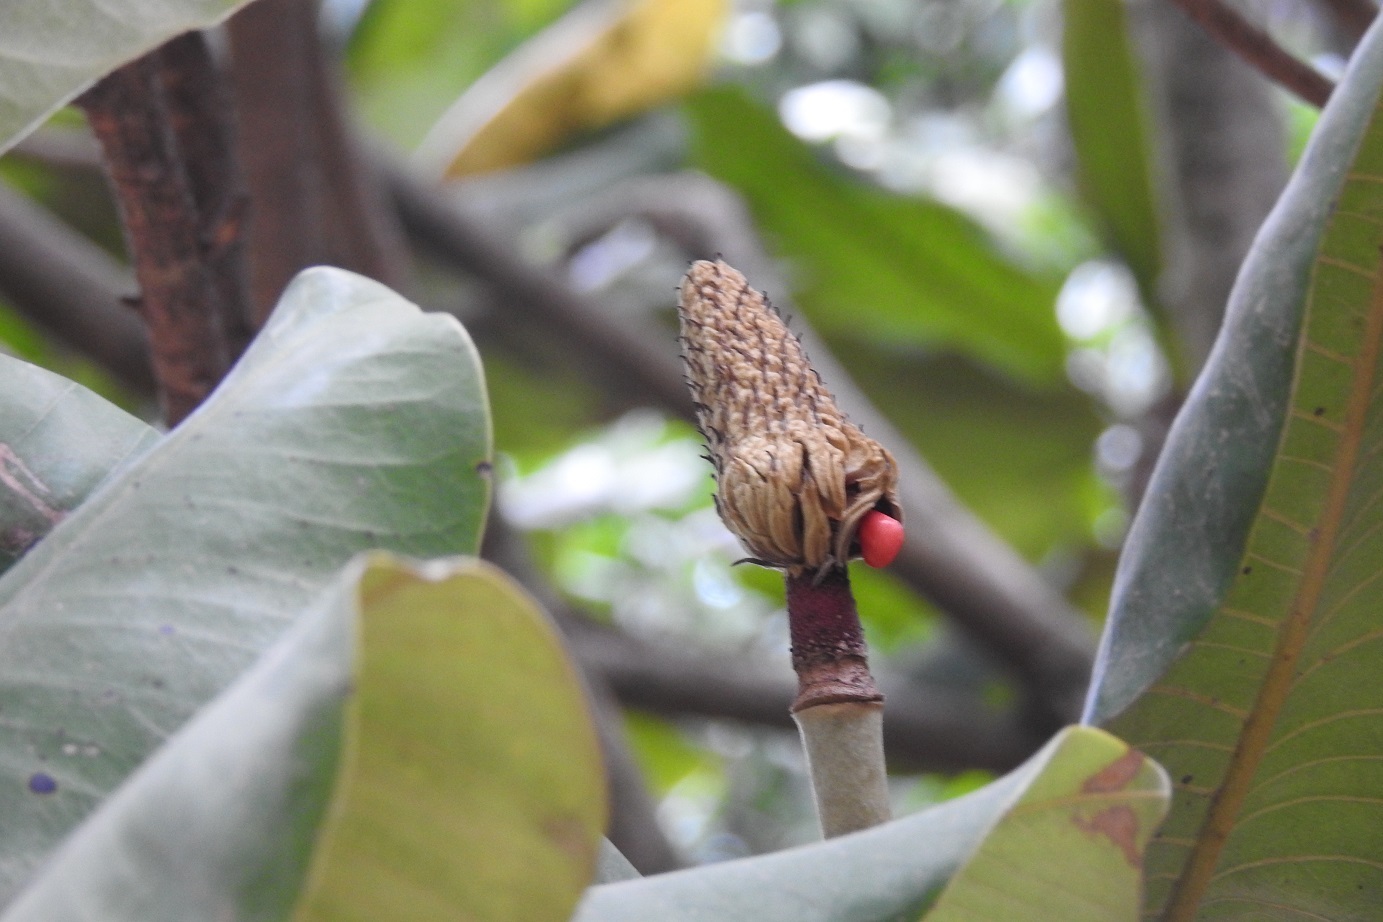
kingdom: Plantae
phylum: Tracheophyta
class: Magnoliopsida
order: Magnoliales
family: Magnoliaceae
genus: Magnolia
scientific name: Magnolia sharpii
